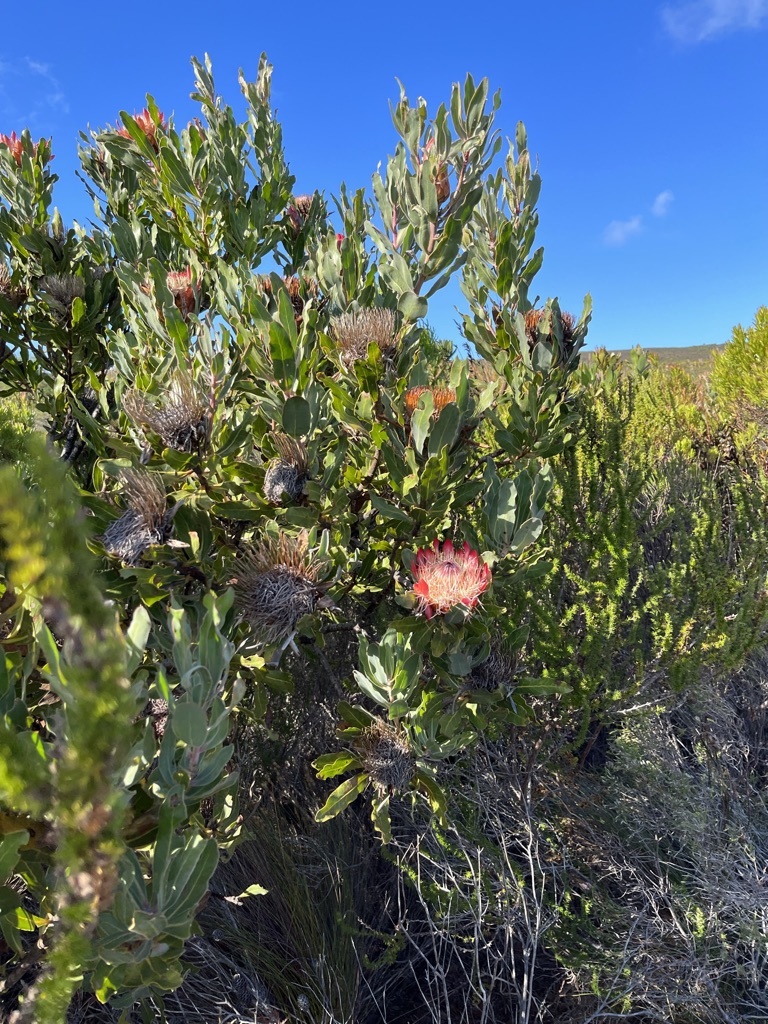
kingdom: Plantae
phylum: Tracheophyta
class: Magnoliopsida
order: Proteales
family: Proteaceae
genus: Protea
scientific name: Protea susannae
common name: Foetid-leaf sugarbush
